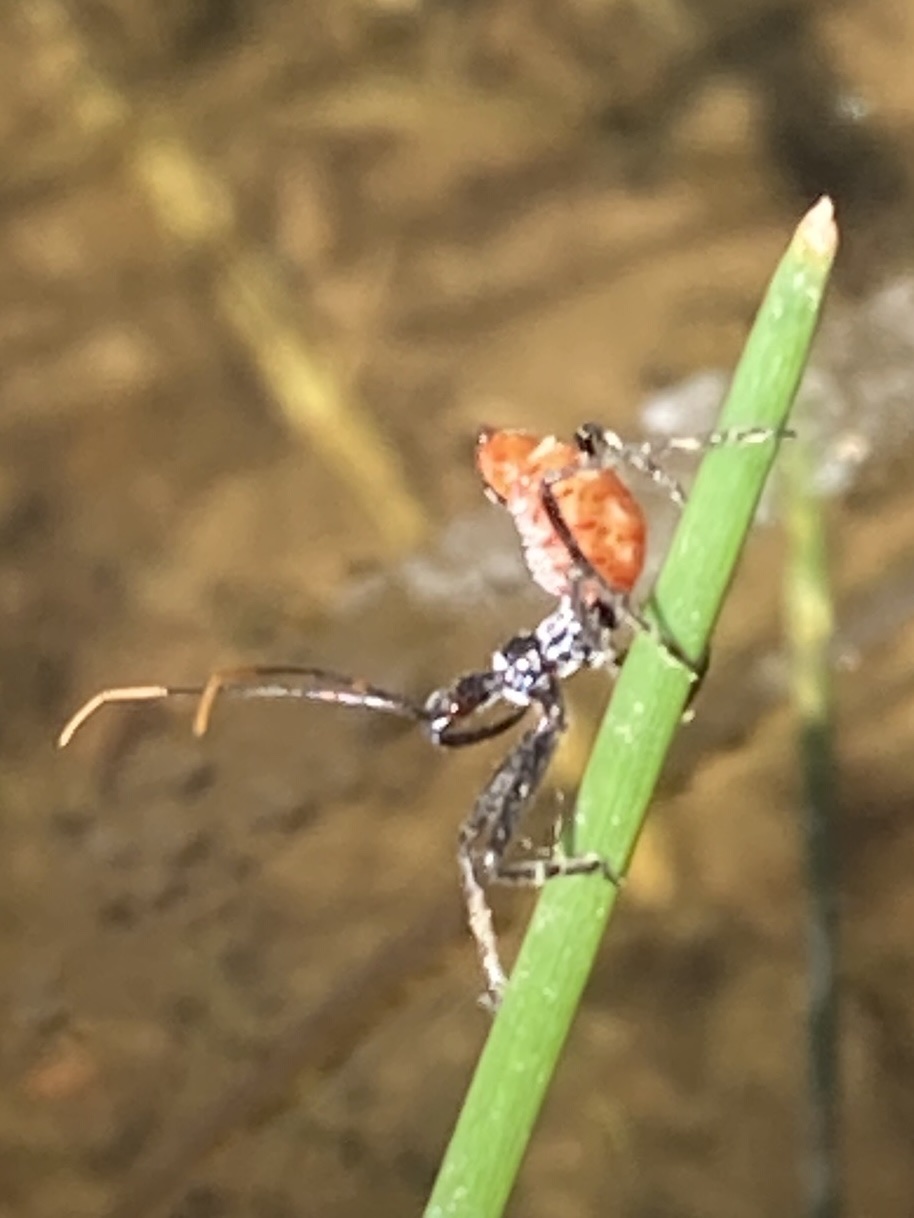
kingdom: Animalia
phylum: Arthropoda
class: Insecta
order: Hemiptera
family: Reduviidae
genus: Arilus
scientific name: Arilus cristatus
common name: North american wheel bug
